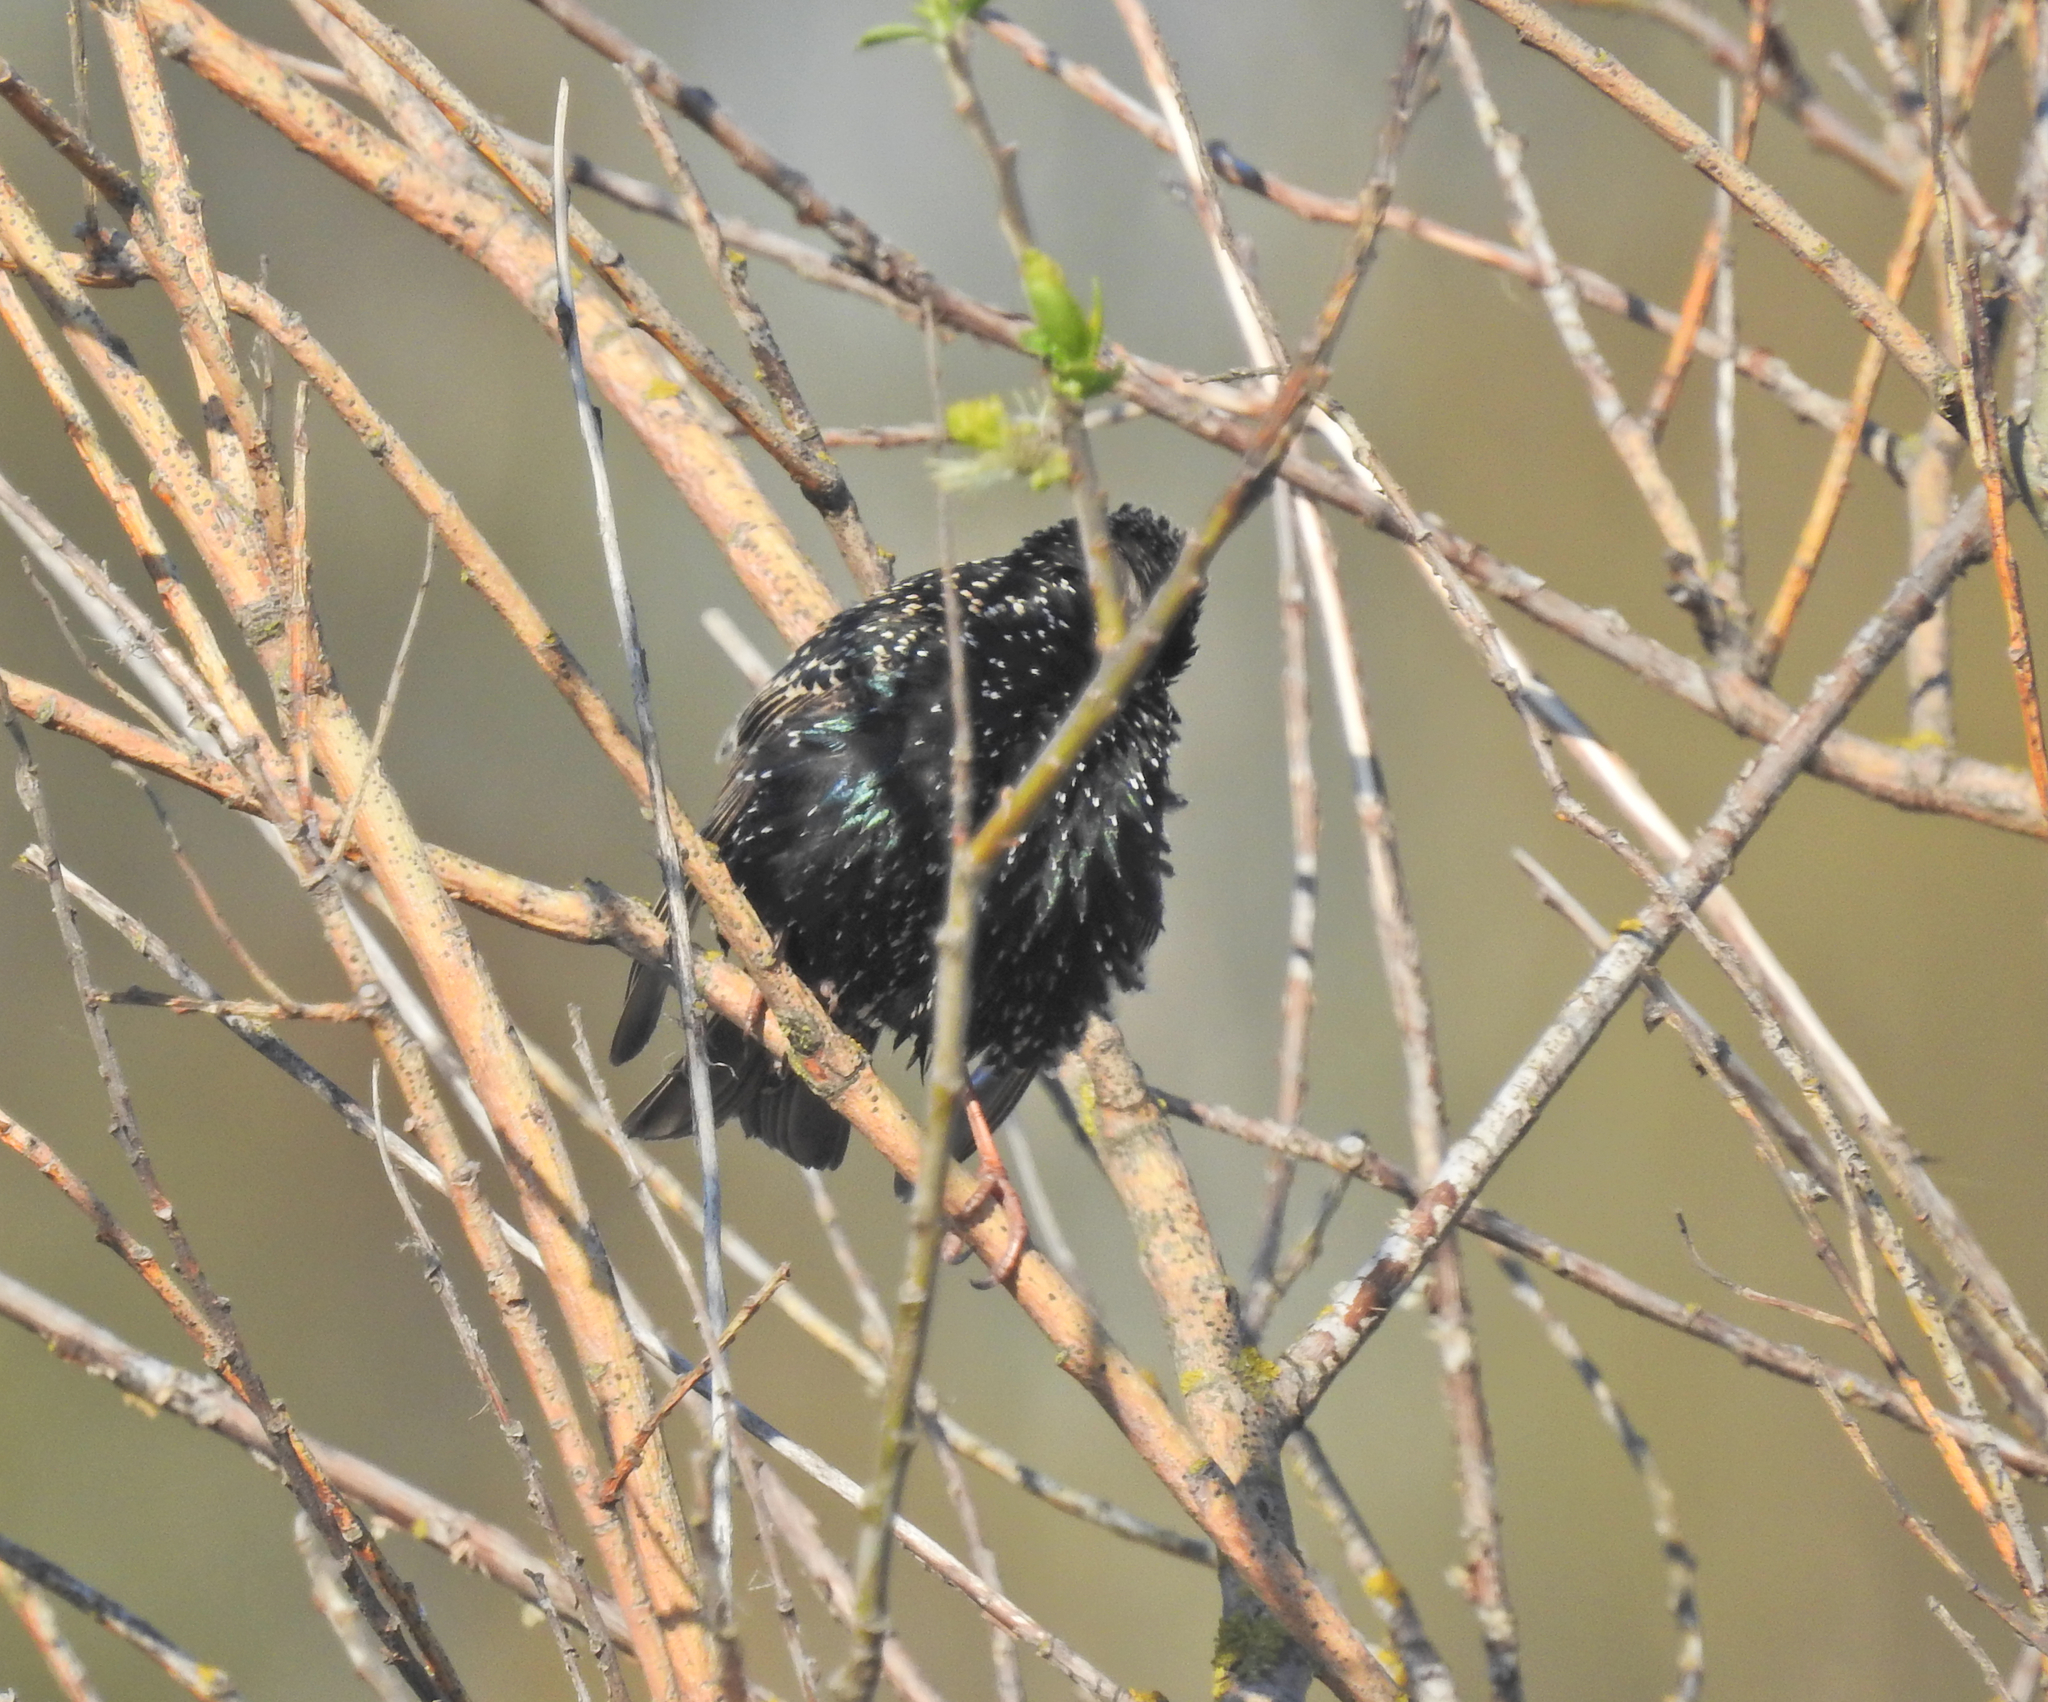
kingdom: Animalia
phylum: Chordata
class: Aves
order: Passeriformes
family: Sturnidae
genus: Sturnus
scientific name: Sturnus vulgaris
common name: Common starling
